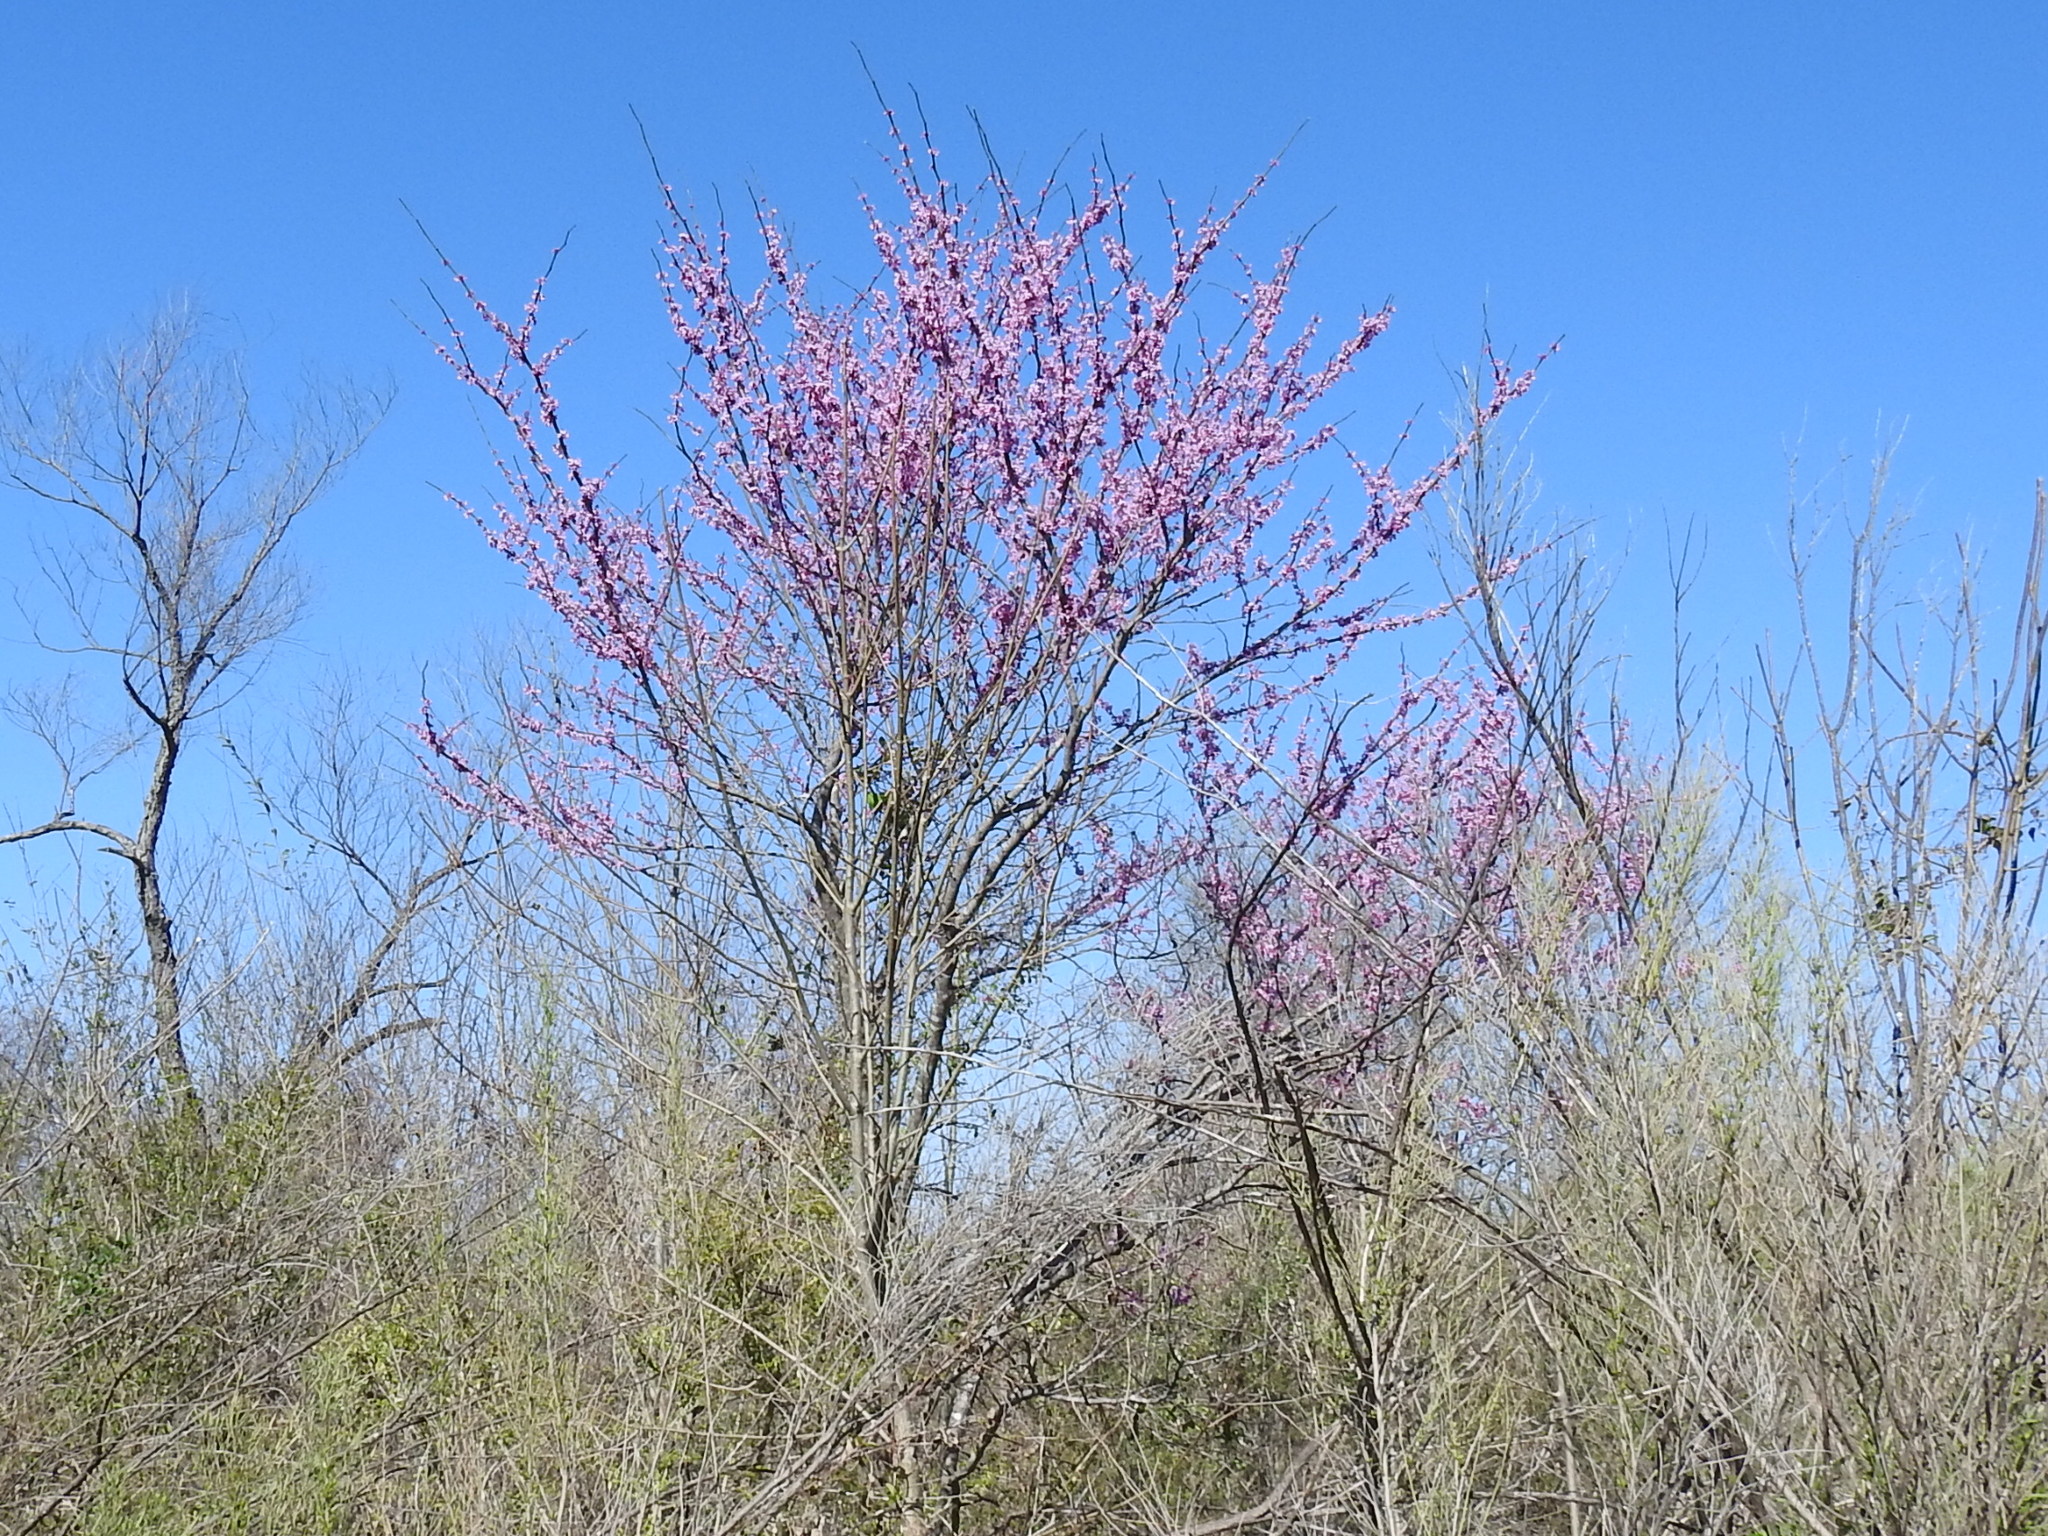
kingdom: Plantae
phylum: Tracheophyta
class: Magnoliopsida
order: Fabales
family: Fabaceae
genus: Cercis
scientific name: Cercis canadensis
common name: Eastern redbud
